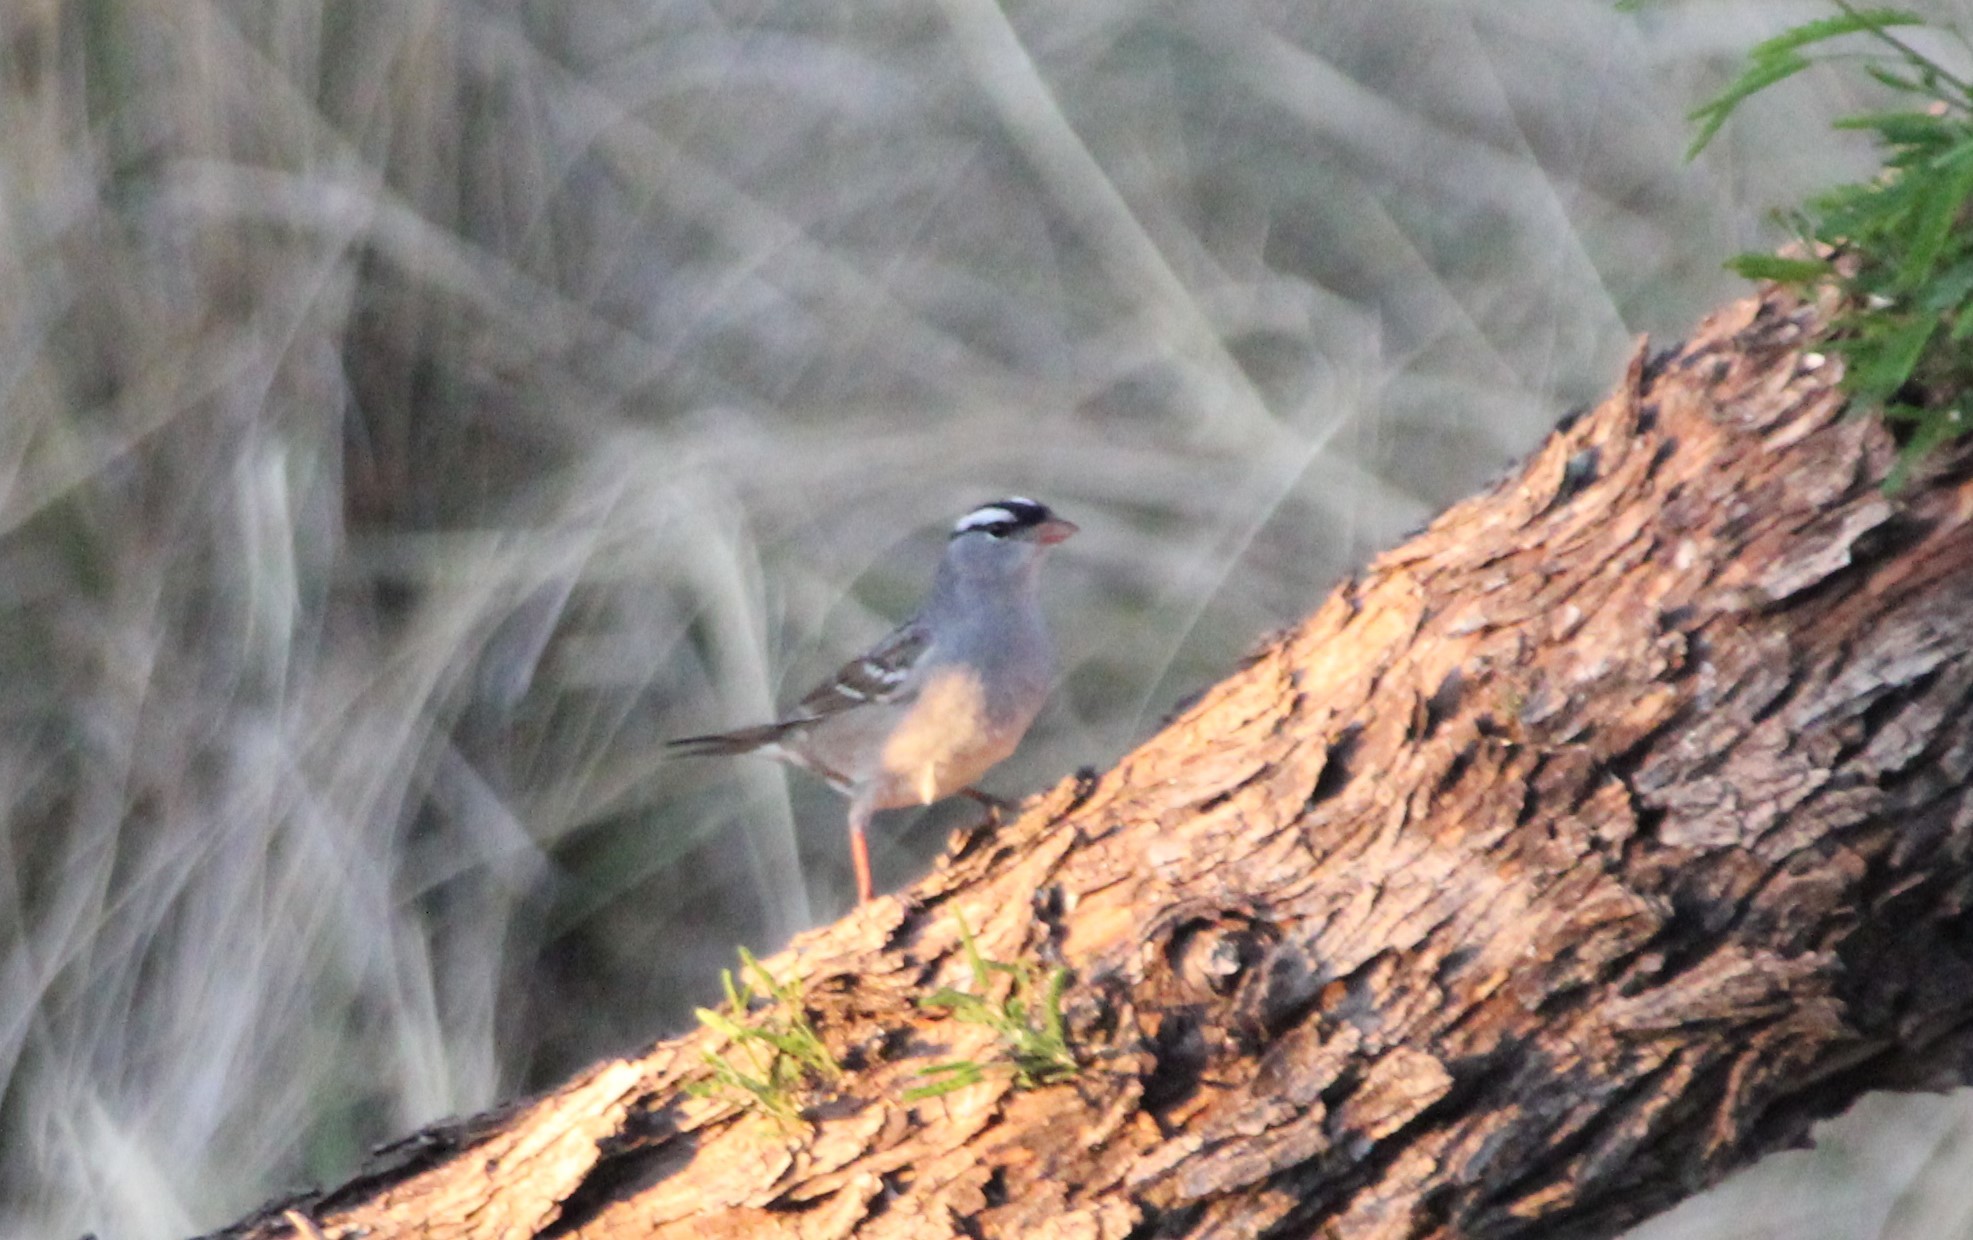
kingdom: Animalia
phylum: Chordata
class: Aves
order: Passeriformes
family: Passerellidae
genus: Zonotrichia
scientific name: Zonotrichia leucophrys
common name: White-crowned sparrow
